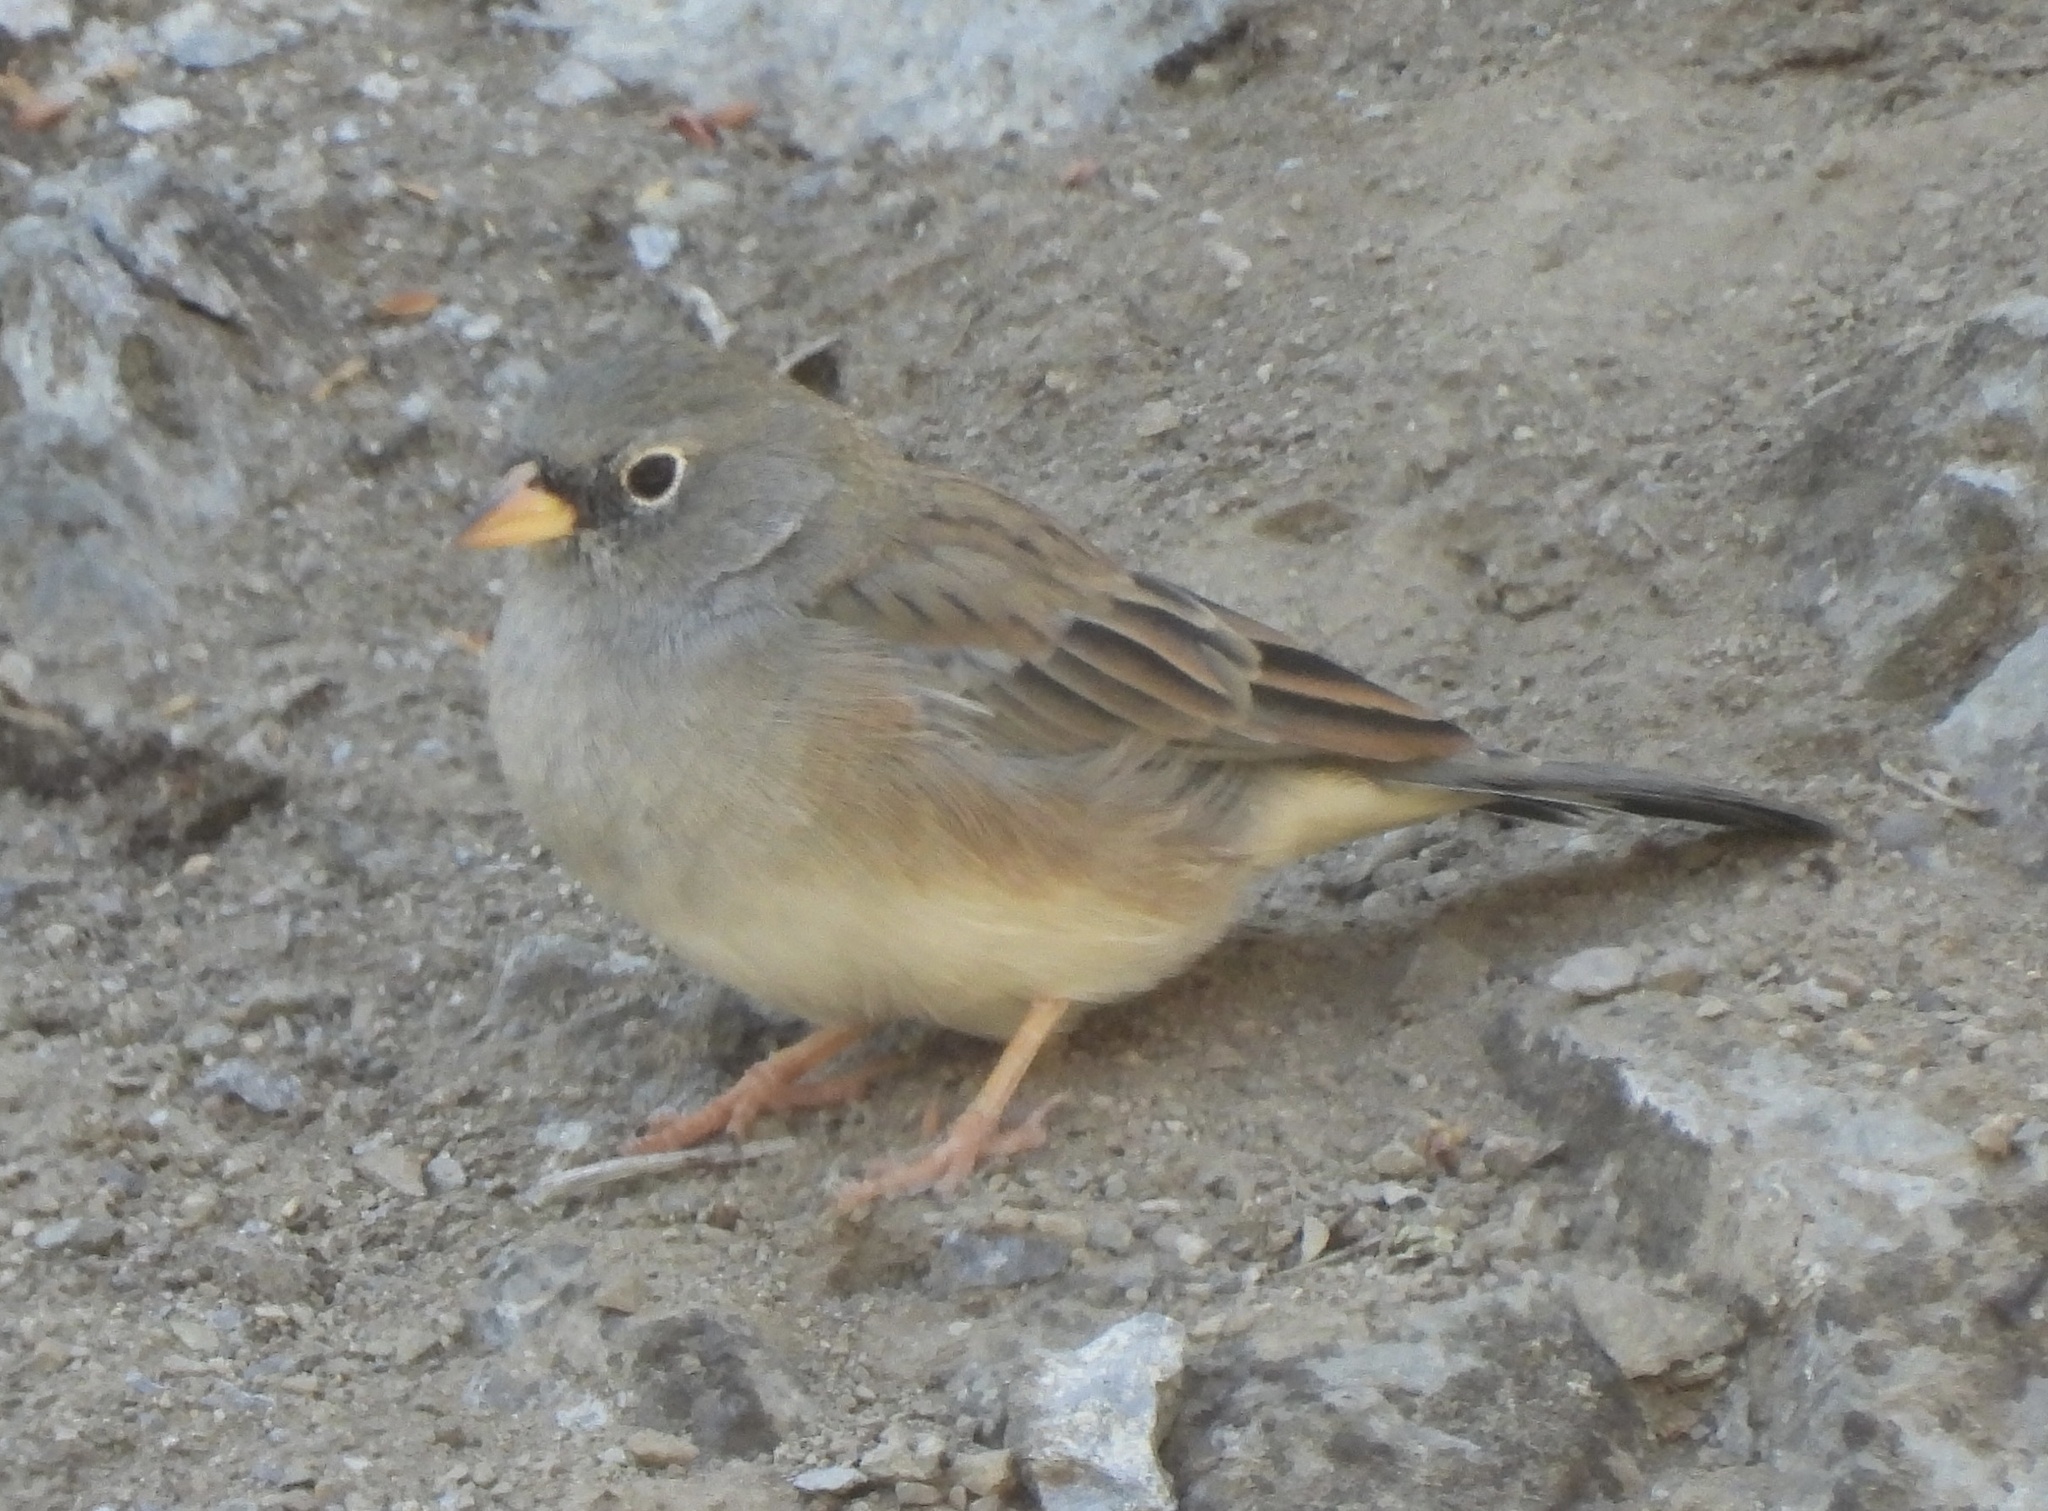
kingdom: Animalia
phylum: Chordata
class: Aves
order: Passeriformes
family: Thraupidae
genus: Porphyrospiza
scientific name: Porphyrospiza alaudina
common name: Band-tailed sierra finch
